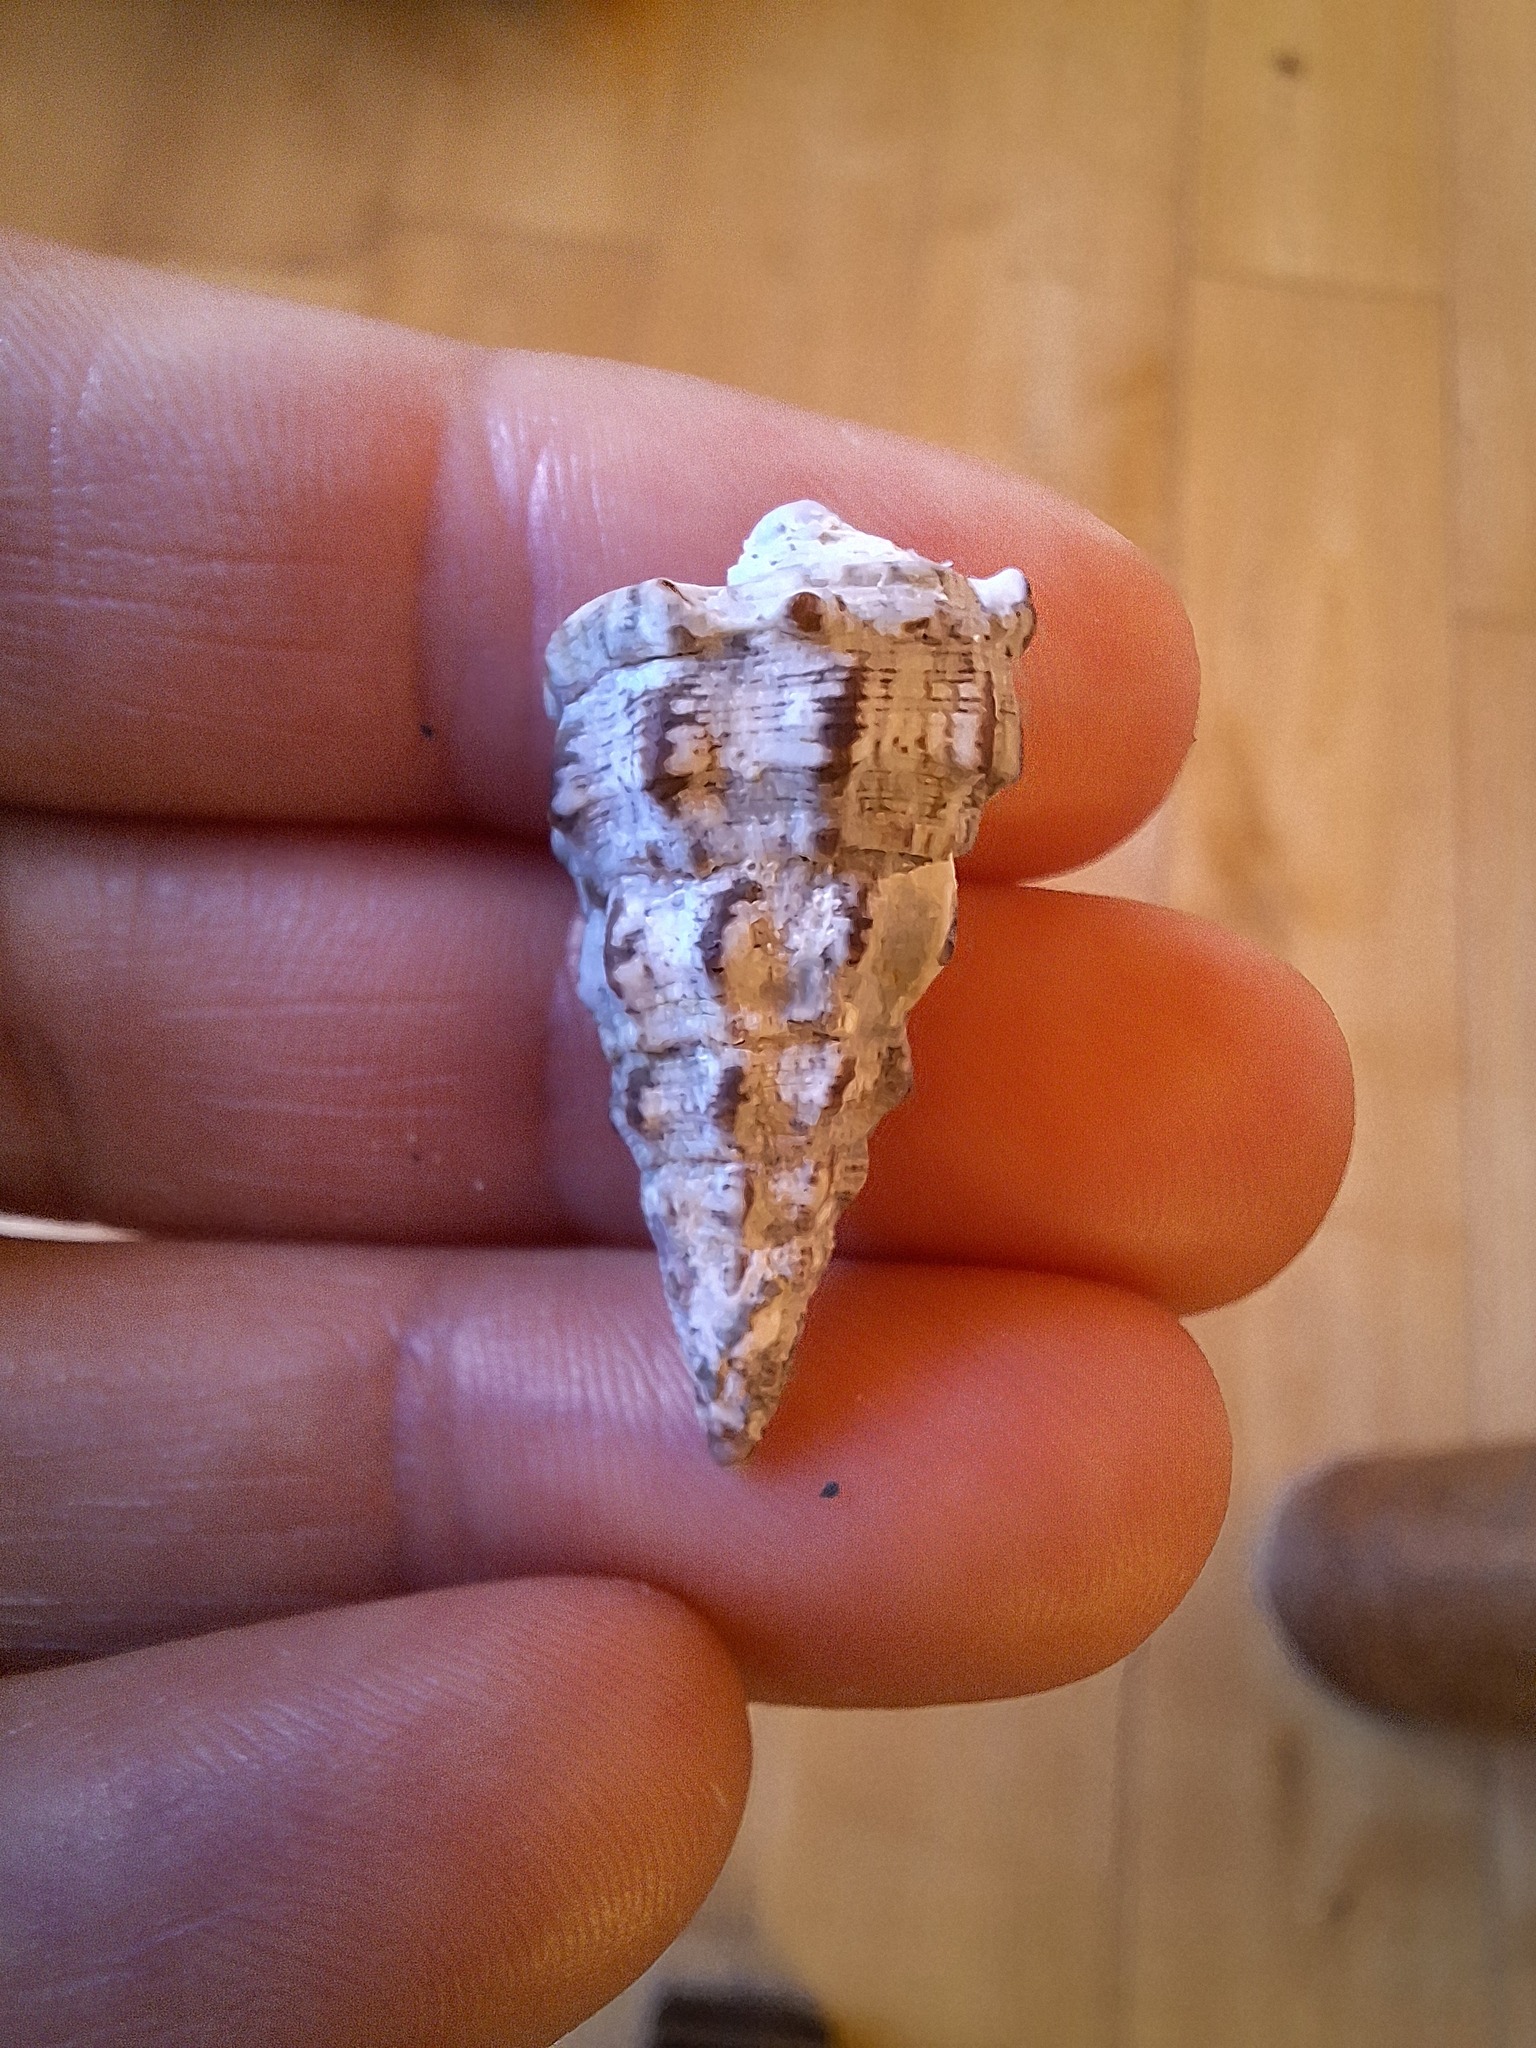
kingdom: Animalia
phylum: Mollusca
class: Gastropoda
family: Cerithiidae
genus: Cerithium
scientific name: Cerithium vulgatum
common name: European cerith
